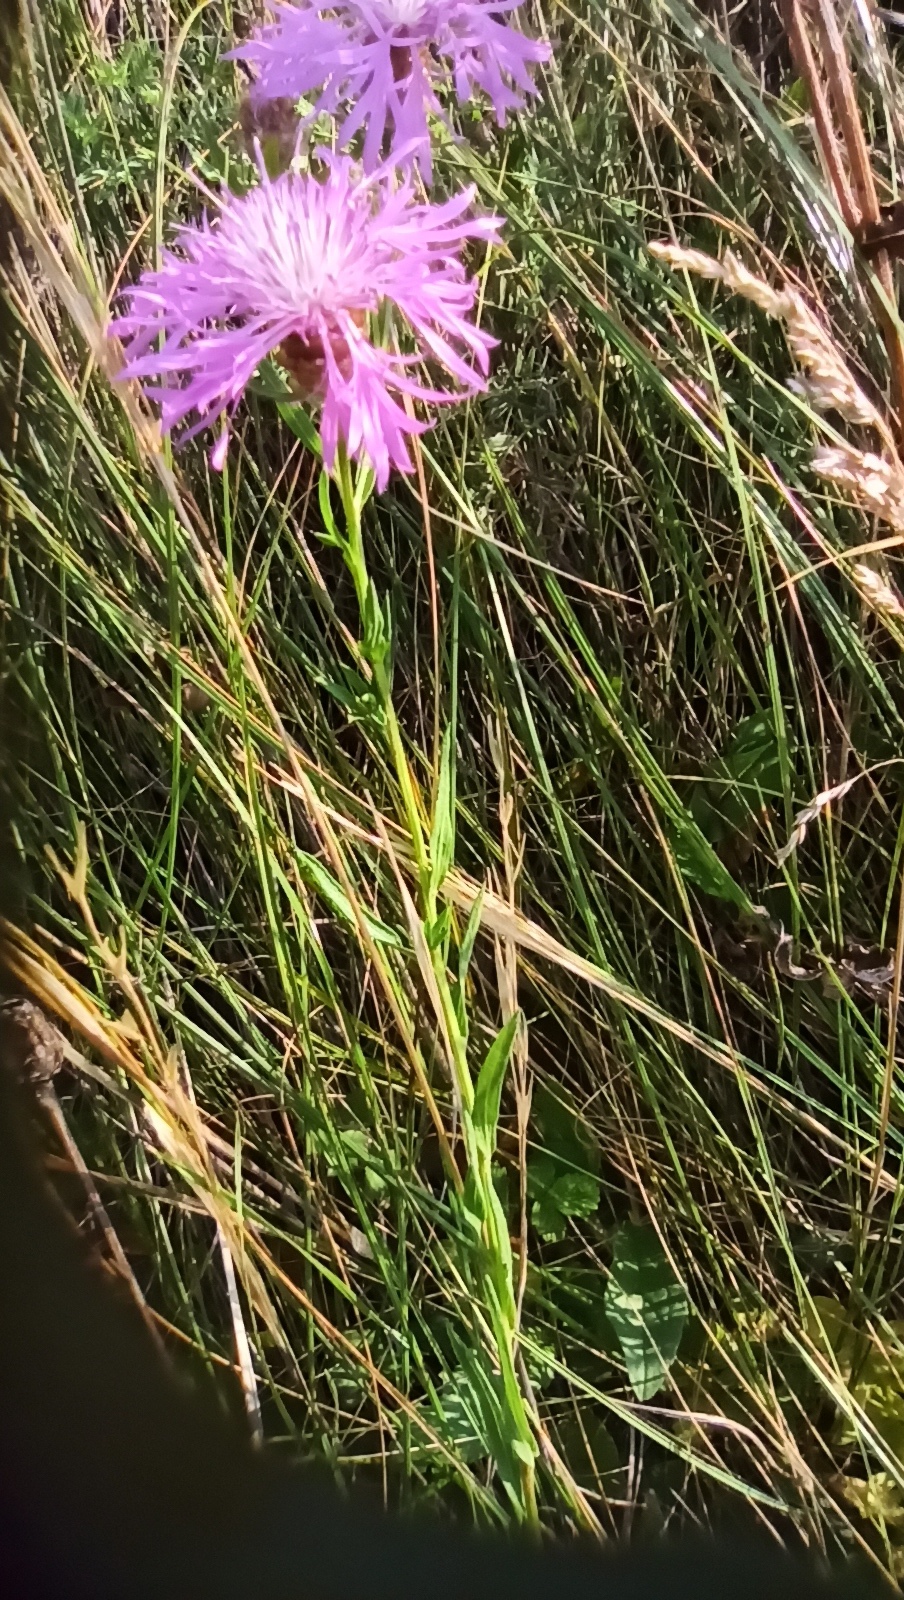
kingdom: Plantae
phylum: Tracheophyta
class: Magnoliopsida
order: Asterales
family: Asteraceae
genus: Centaurea
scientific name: Centaurea jacea
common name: Brown knapweed
